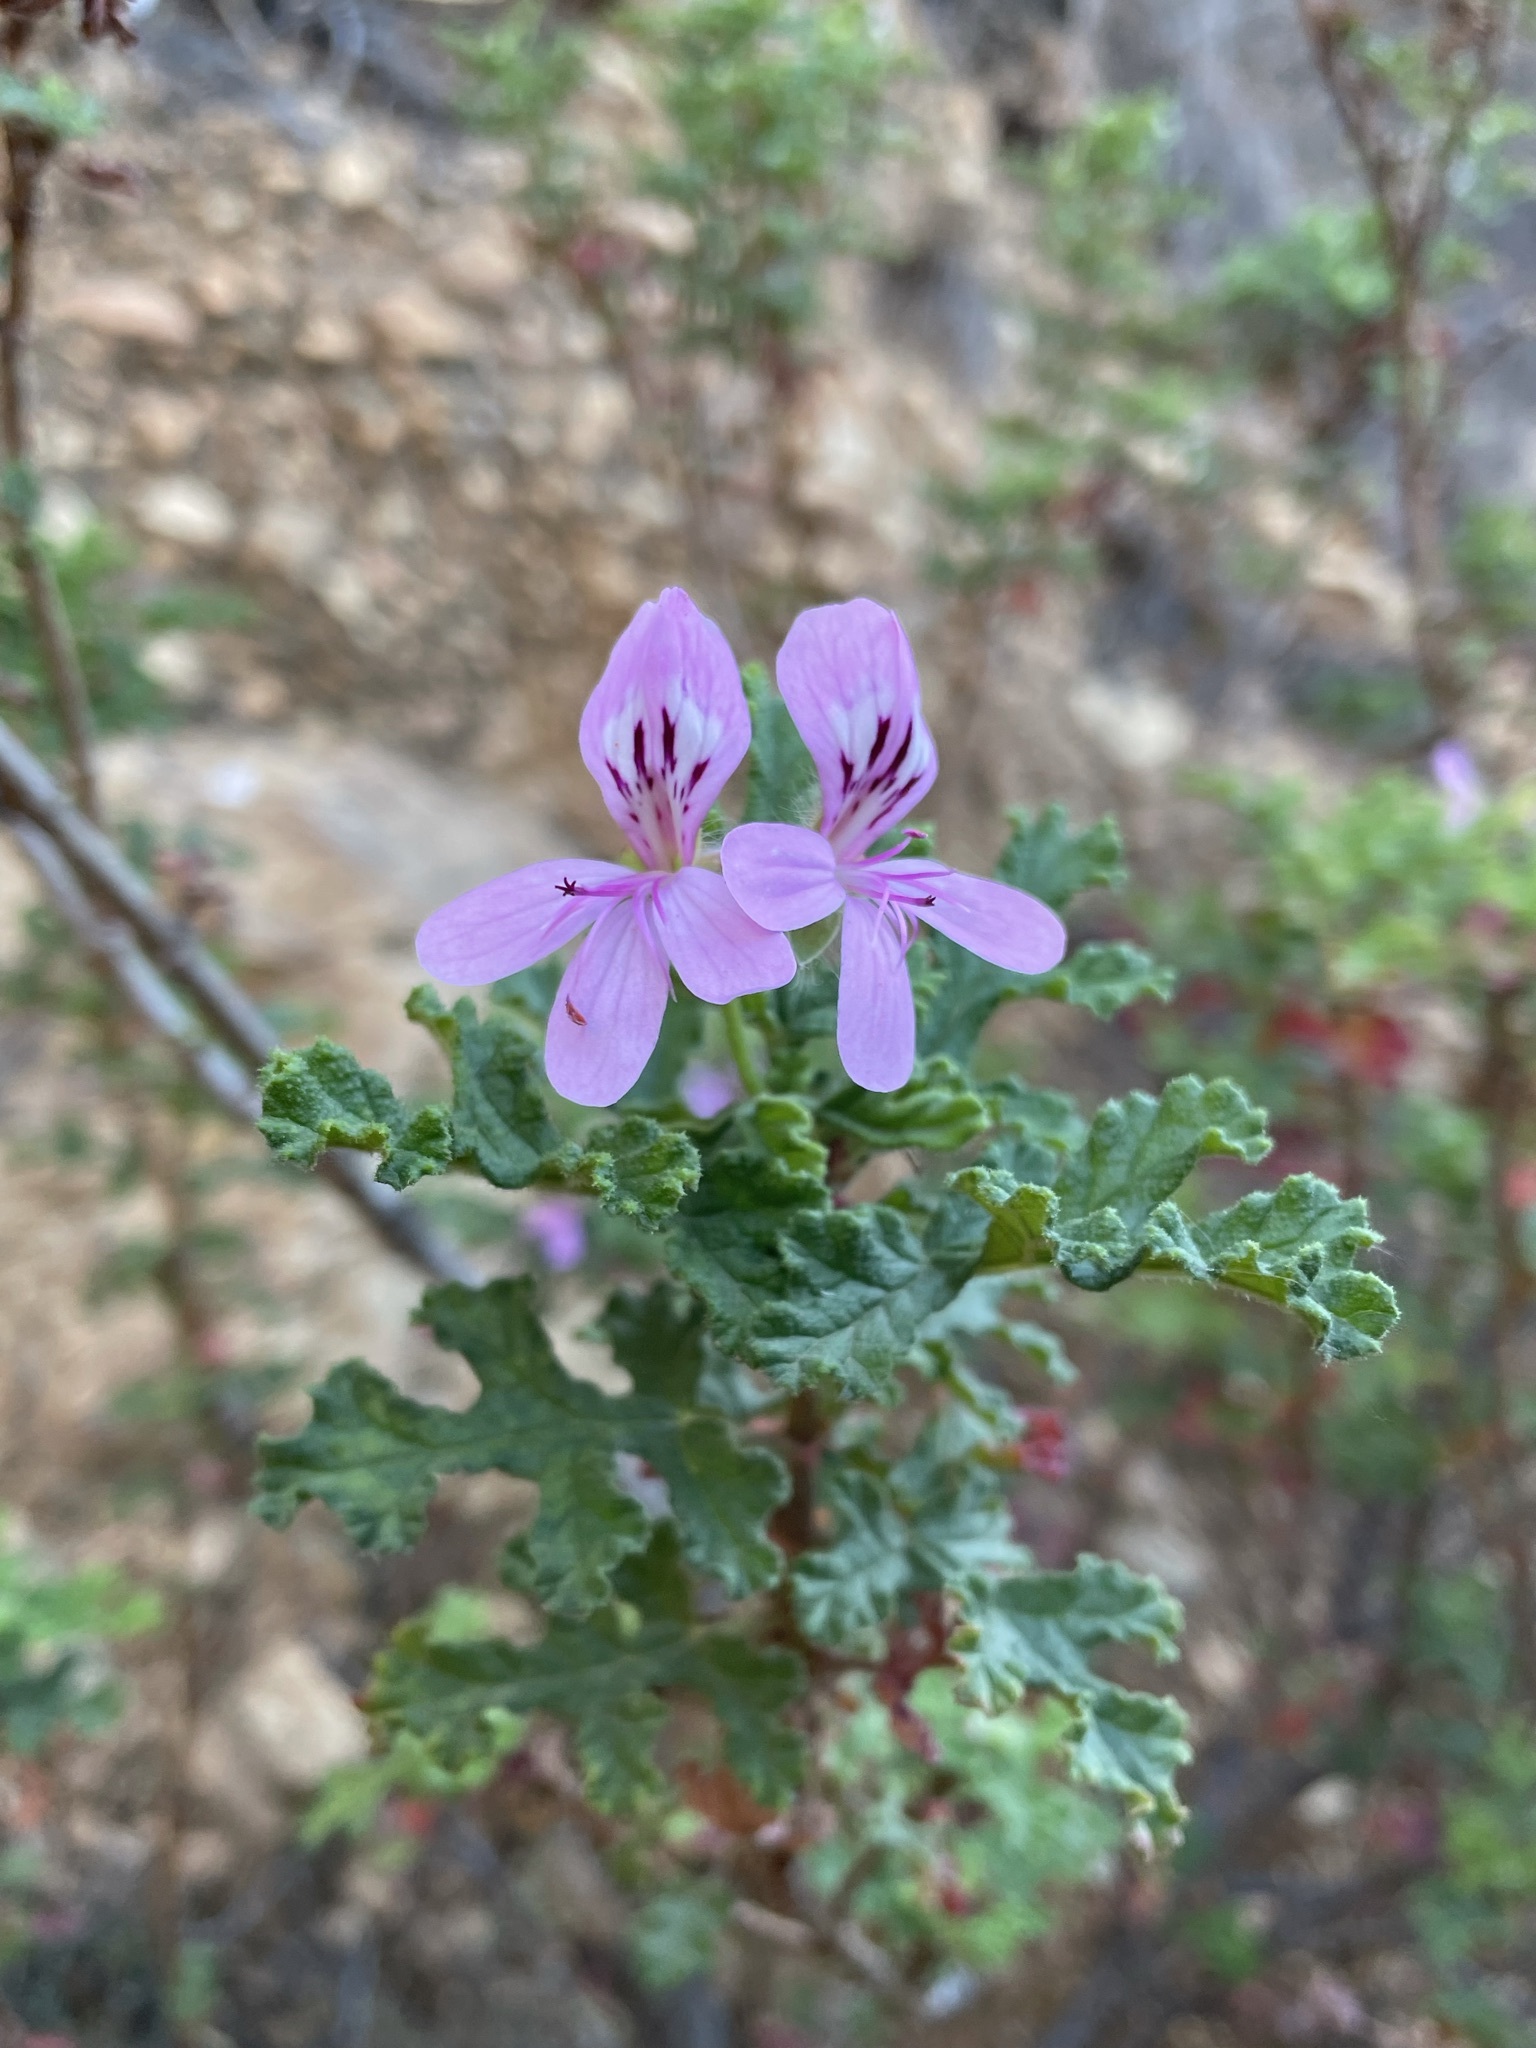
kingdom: Plantae
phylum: Tracheophyta
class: Magnoliopsida
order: Geraniales
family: Geraniaceae
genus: Pelargonium
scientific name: Pelargonium quercifolium
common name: Oakleaf geranium
